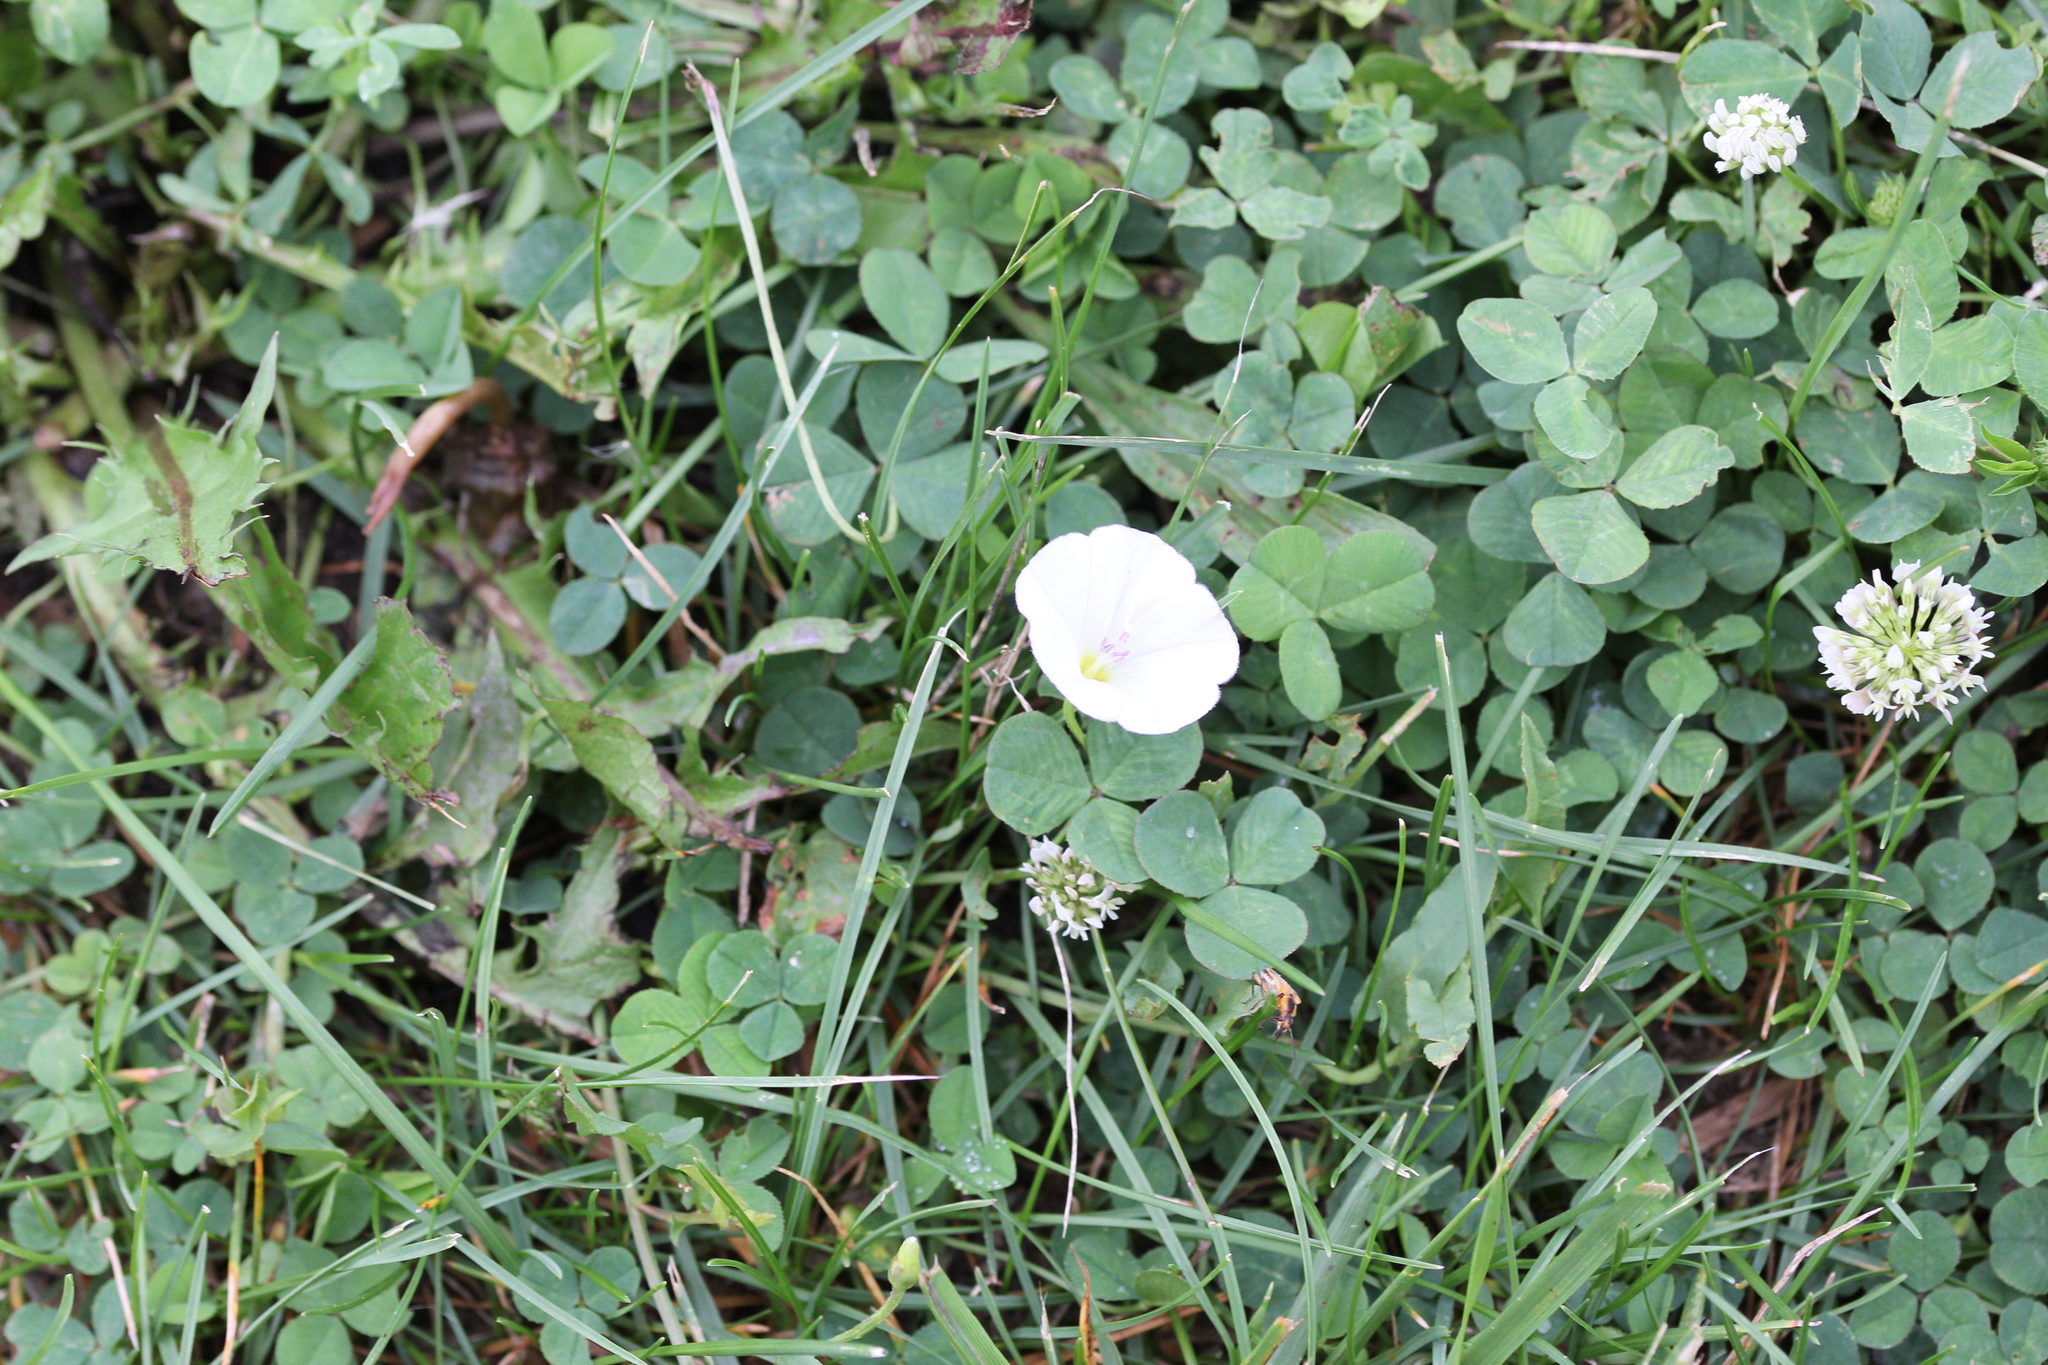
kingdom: Plantae
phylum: Tracheophyta
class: Magnoliopsida
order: Solanales
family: Convolvulaceae
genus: Convolvulus
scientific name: Convolvulus arvensis
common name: Field bindweed
